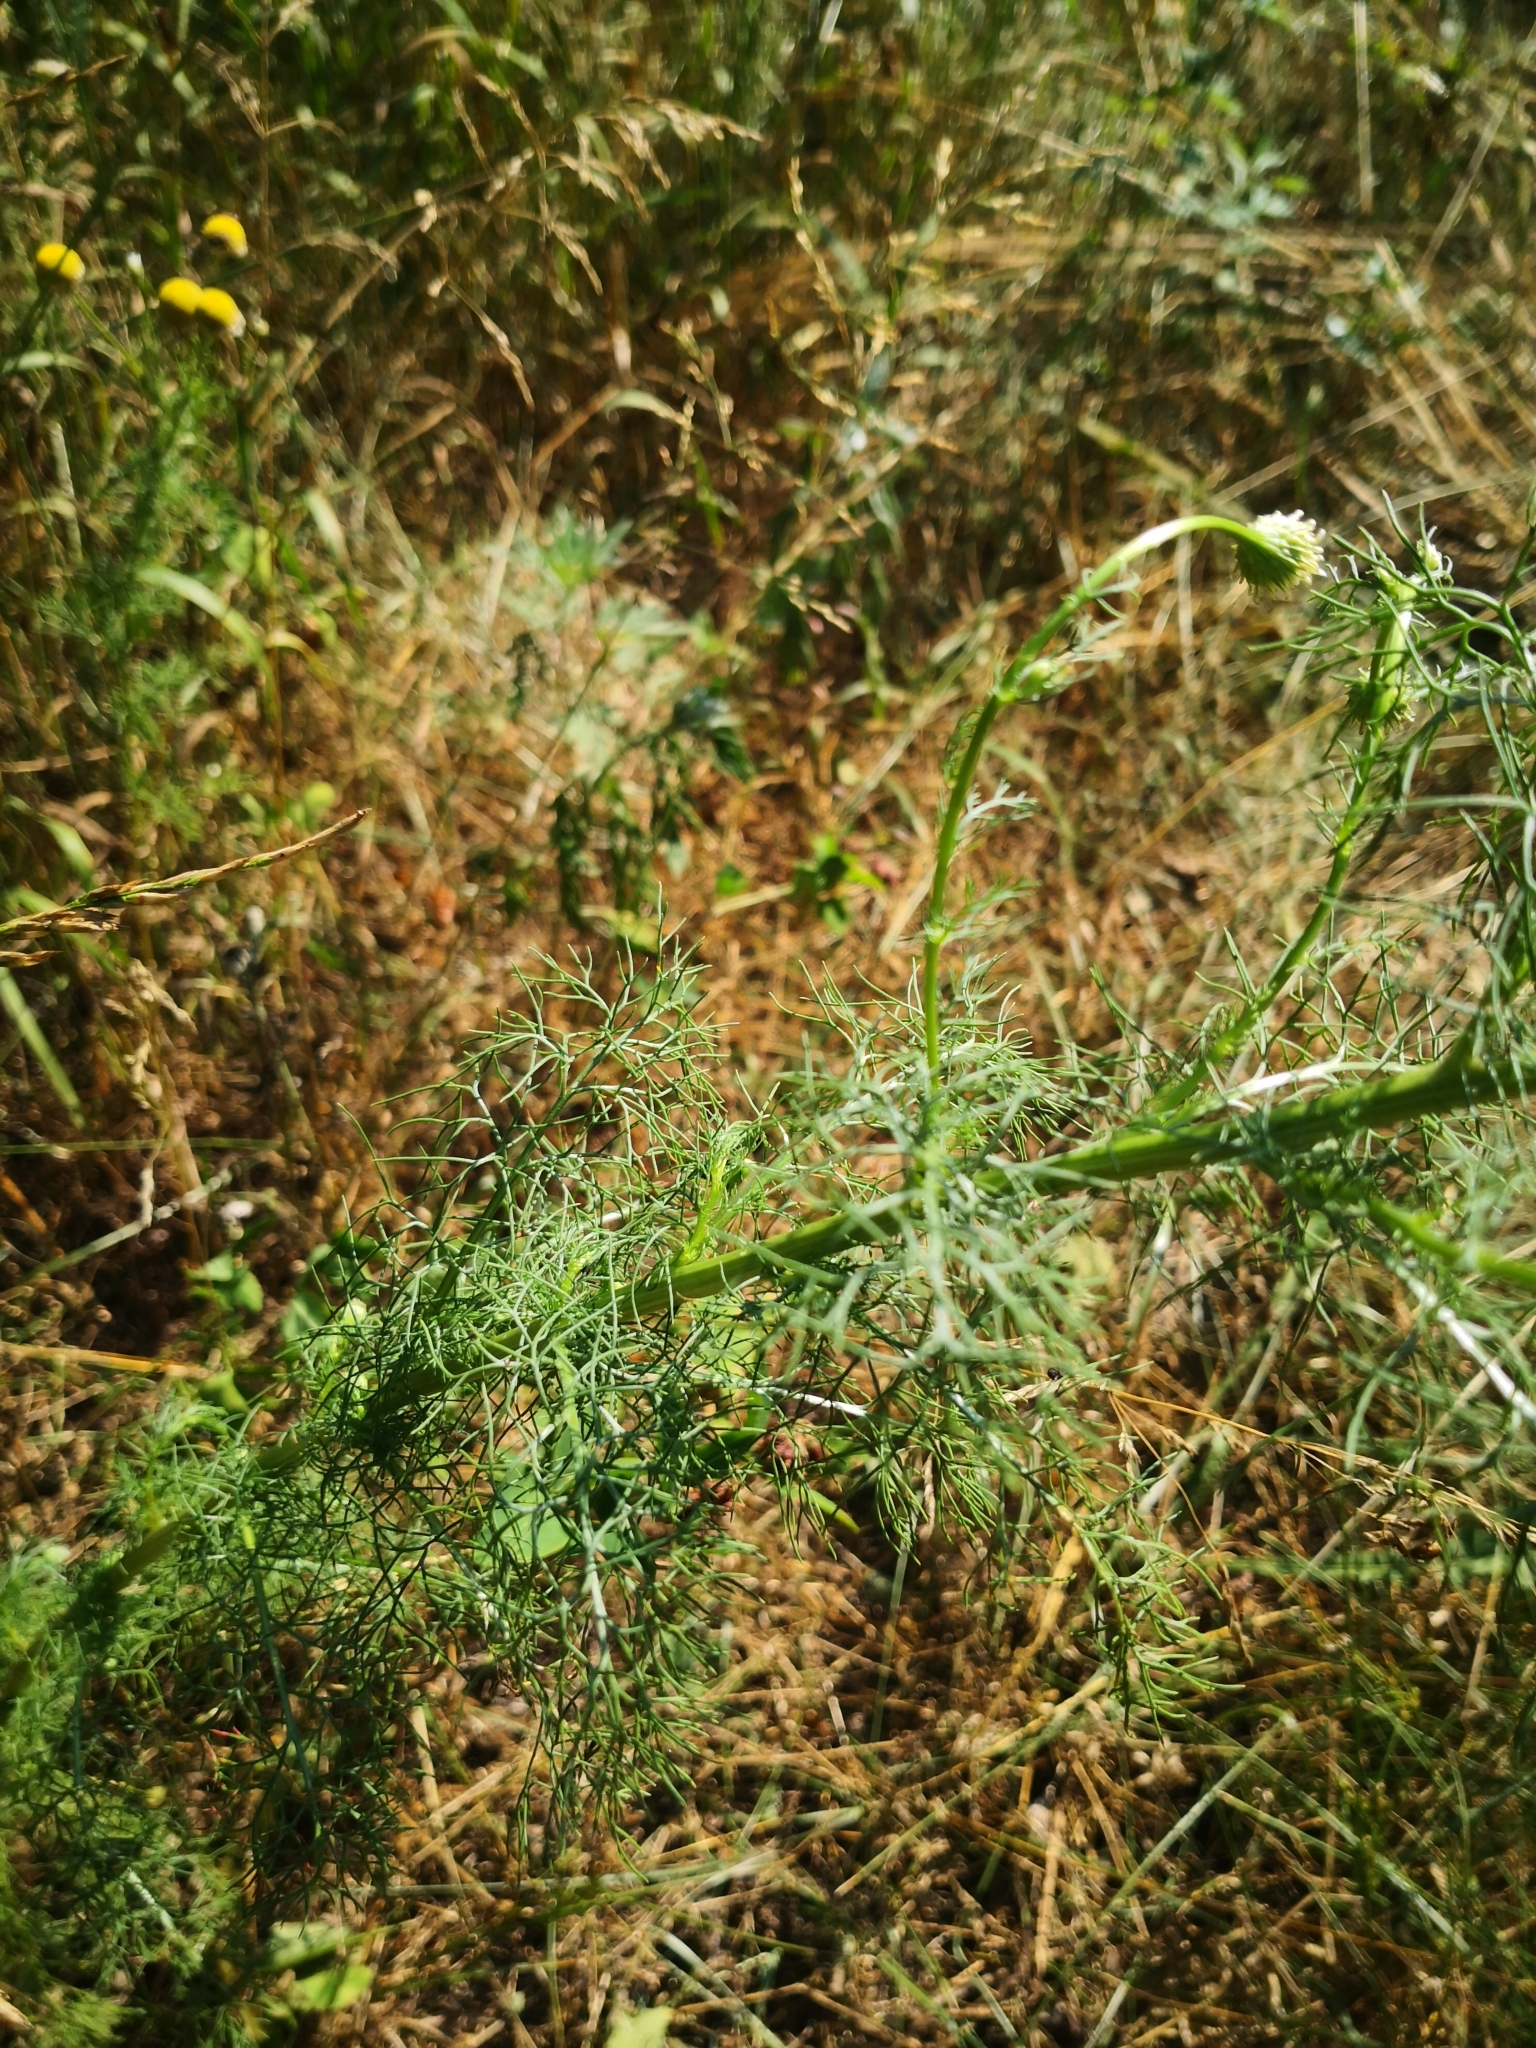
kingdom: Plantae
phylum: Tracheophyta
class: Magnoliopsida
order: Asterales
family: Asteraceae
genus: Tripleurospermum
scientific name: Tripleurospermum inodorum
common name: Scentless mayweed
